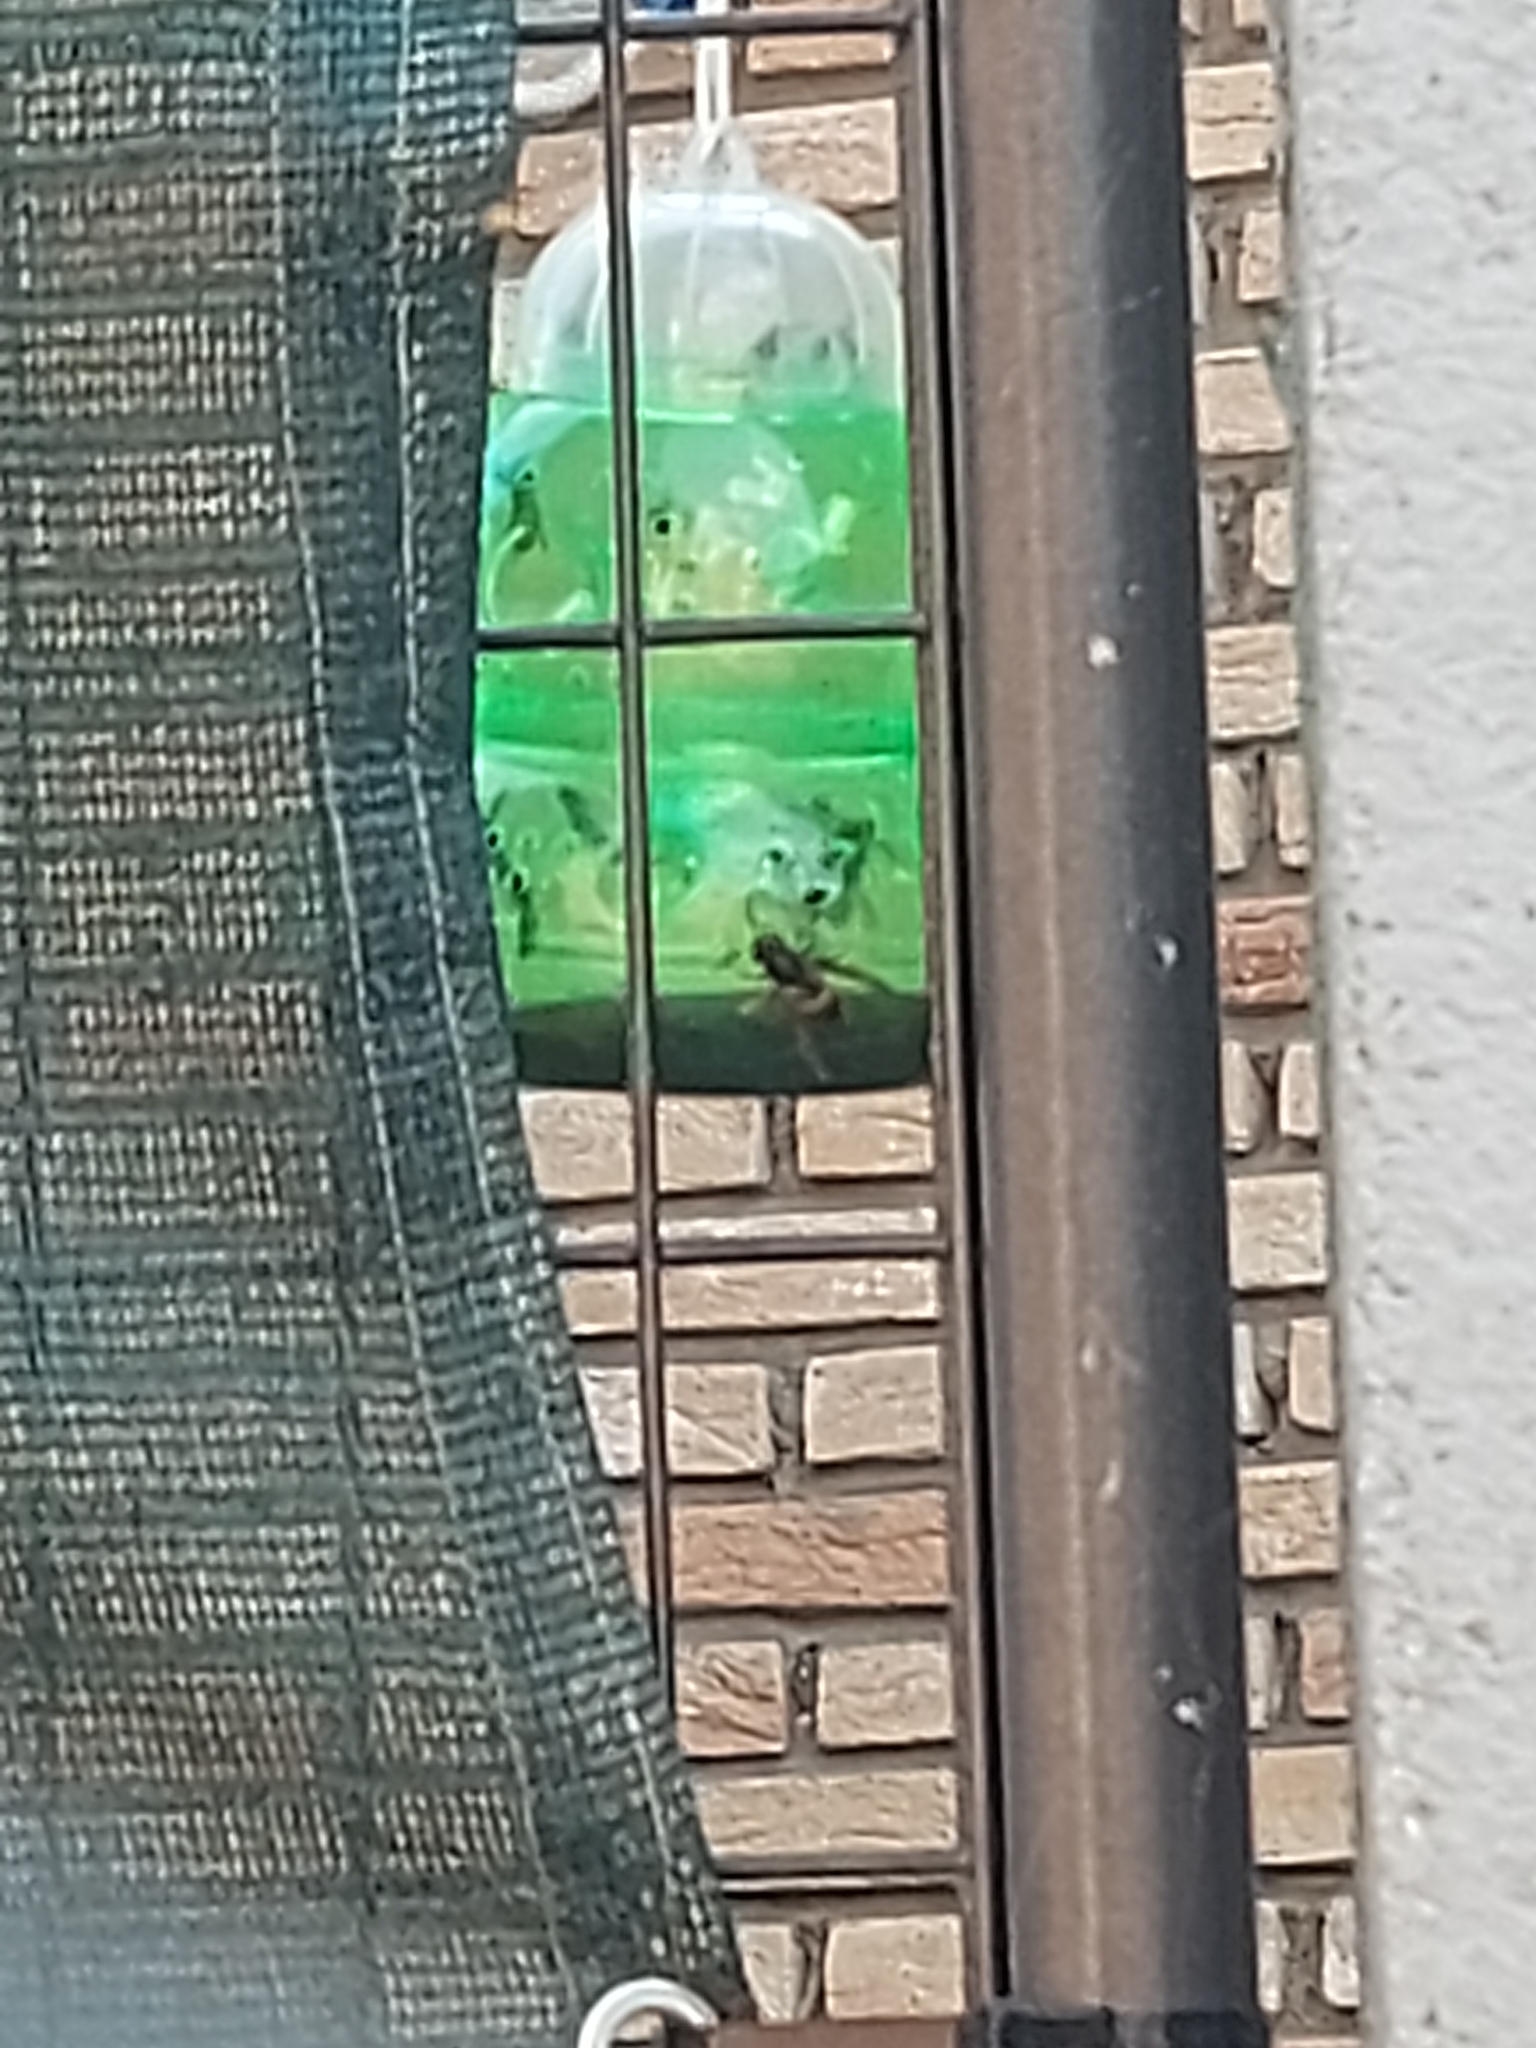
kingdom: Animalia
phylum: Arthropoda
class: Insecta
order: Hymenoptera
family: Vespidae
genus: Vespa
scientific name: Vespa velutina
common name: Asian hornet
